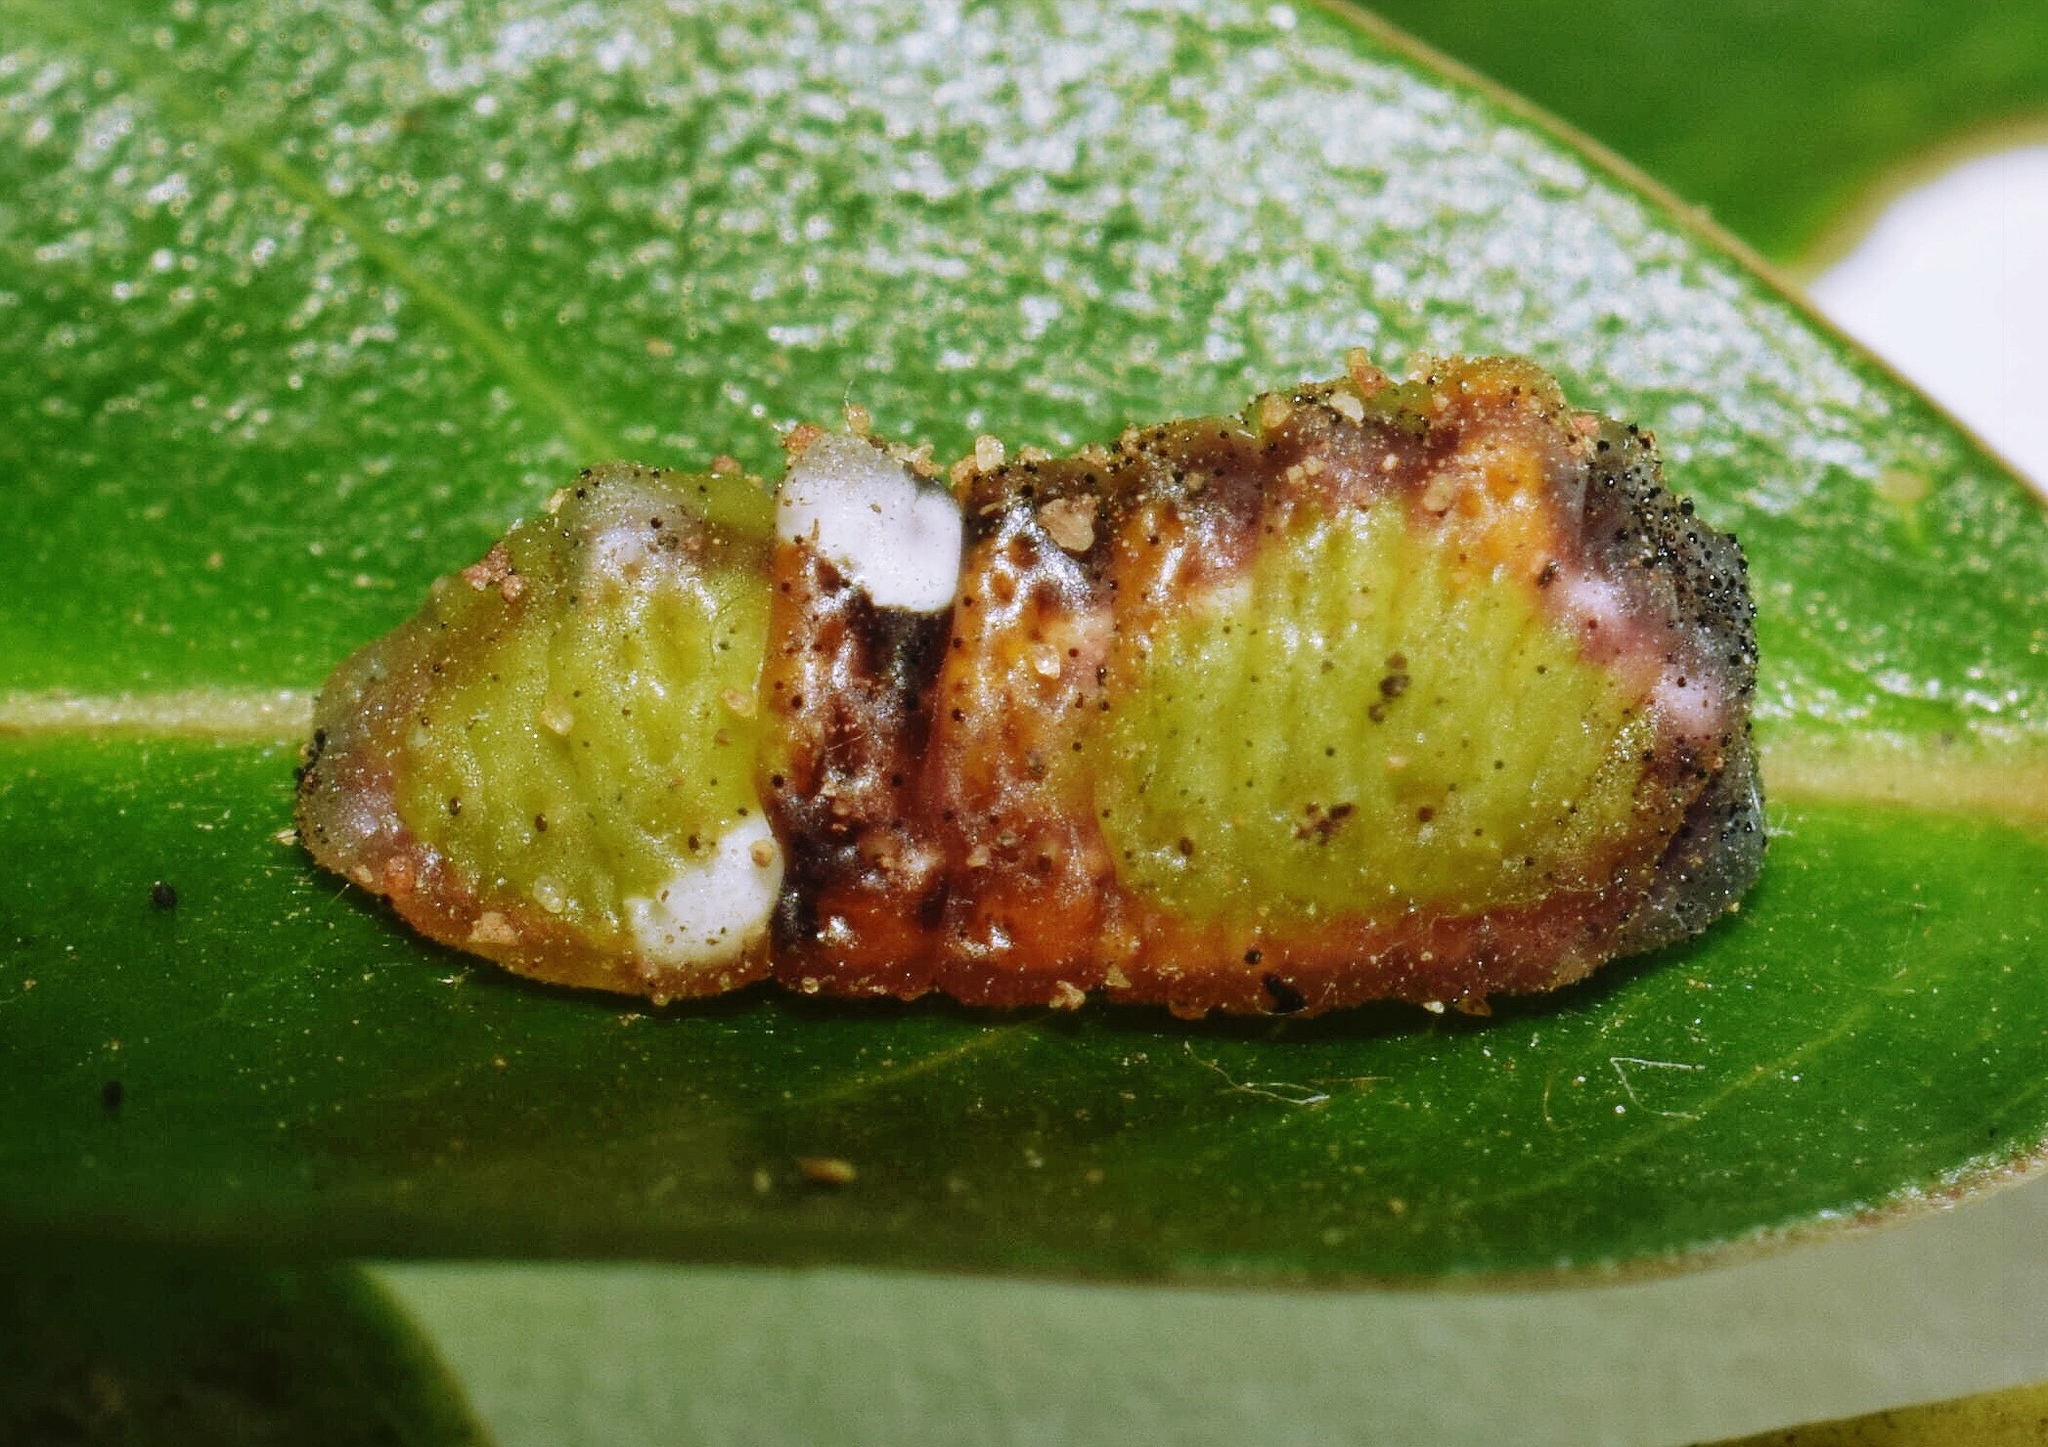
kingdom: Animalia
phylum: Arthropoda
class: Insecta
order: Lepidoptera
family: Lycaenidae
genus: Myrina
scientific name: Myrina silenus
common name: Amber fig-tree blue
